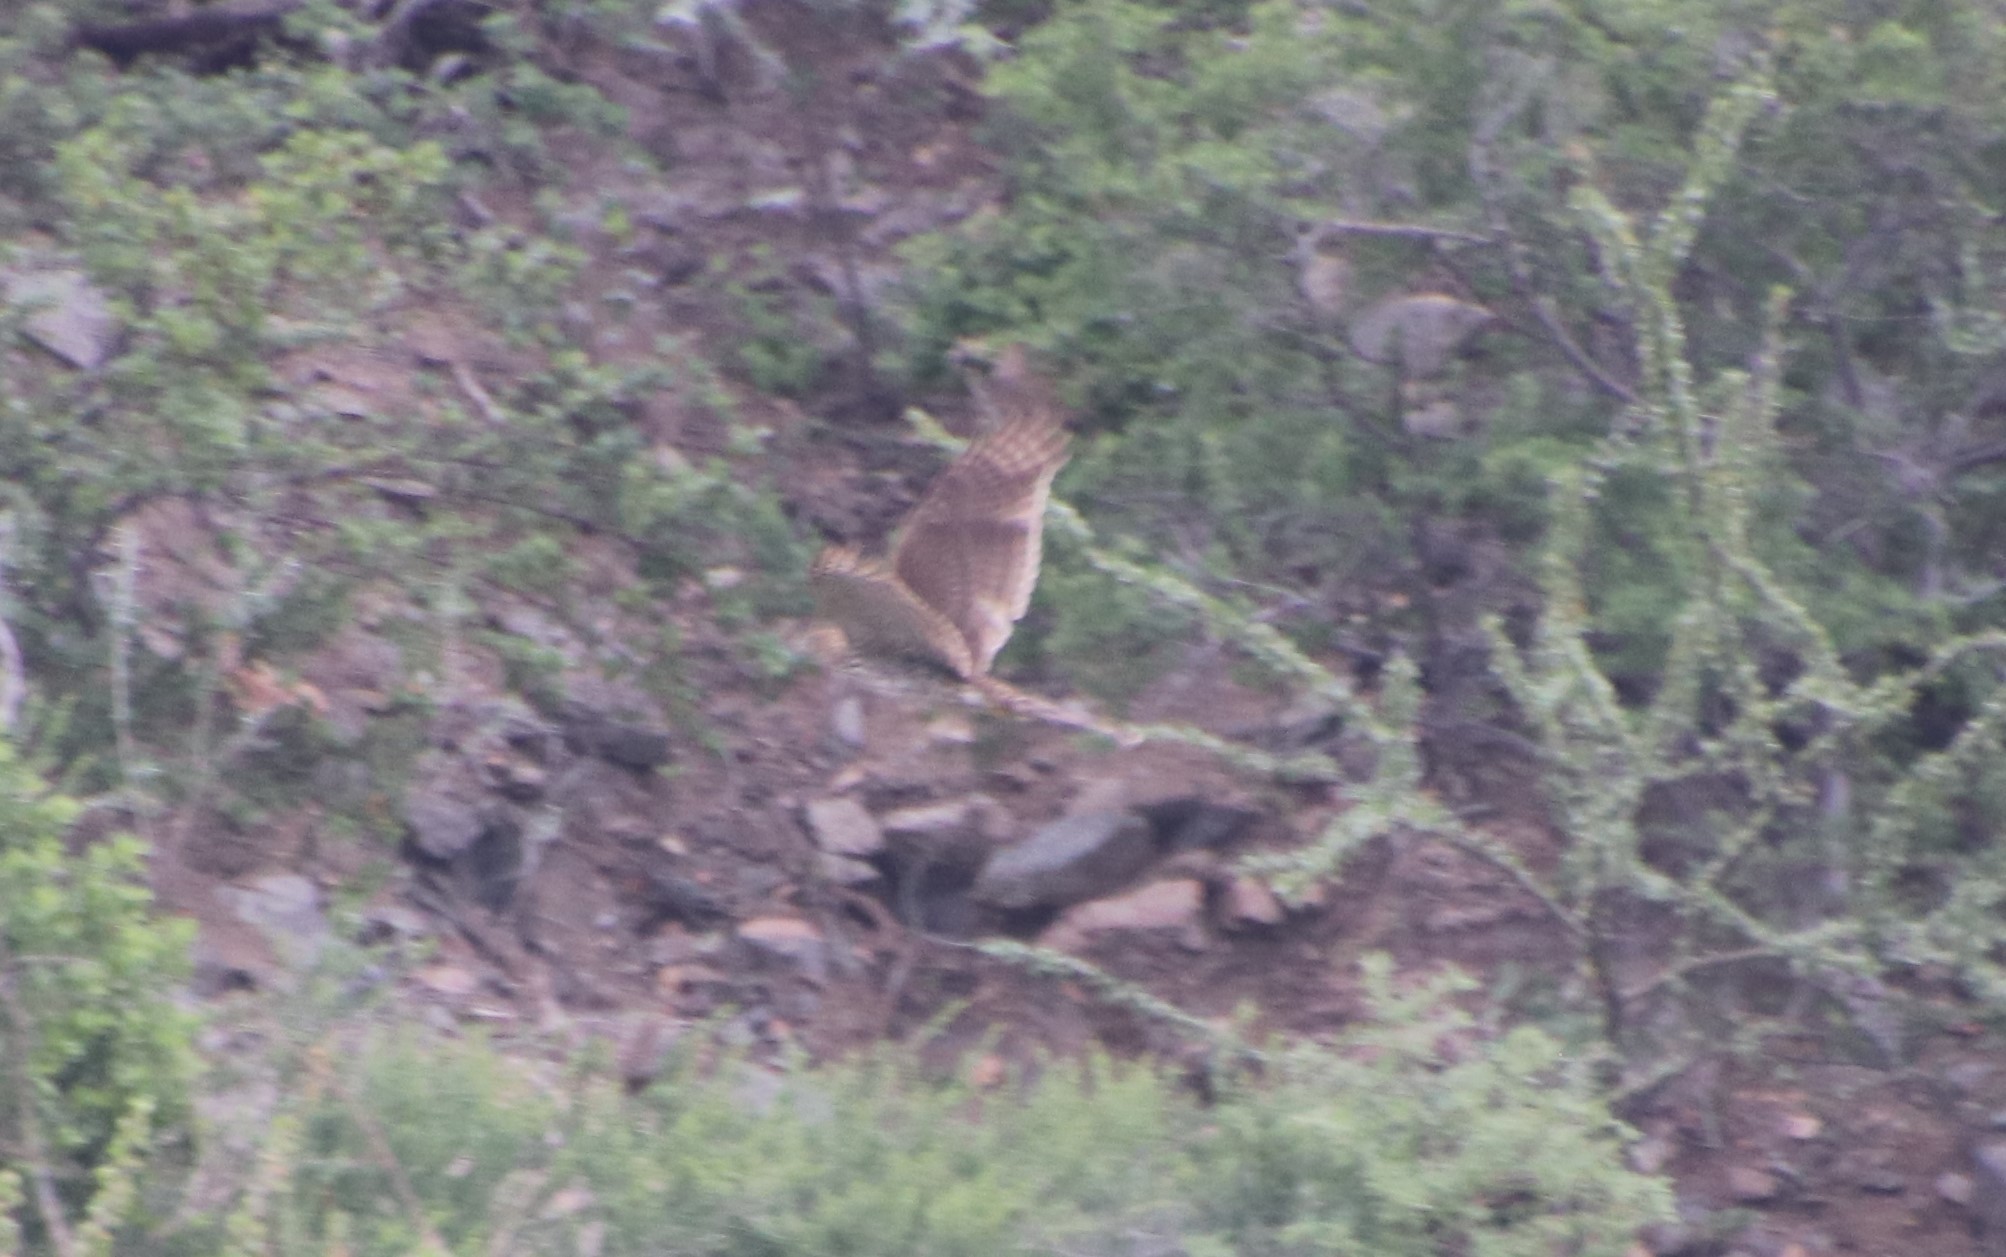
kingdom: Animalia
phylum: Chordata
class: Aves
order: Accipitriformes
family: Accipitridae
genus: Accipiter
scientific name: Accipiter cooperii
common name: Cooper's hawk
